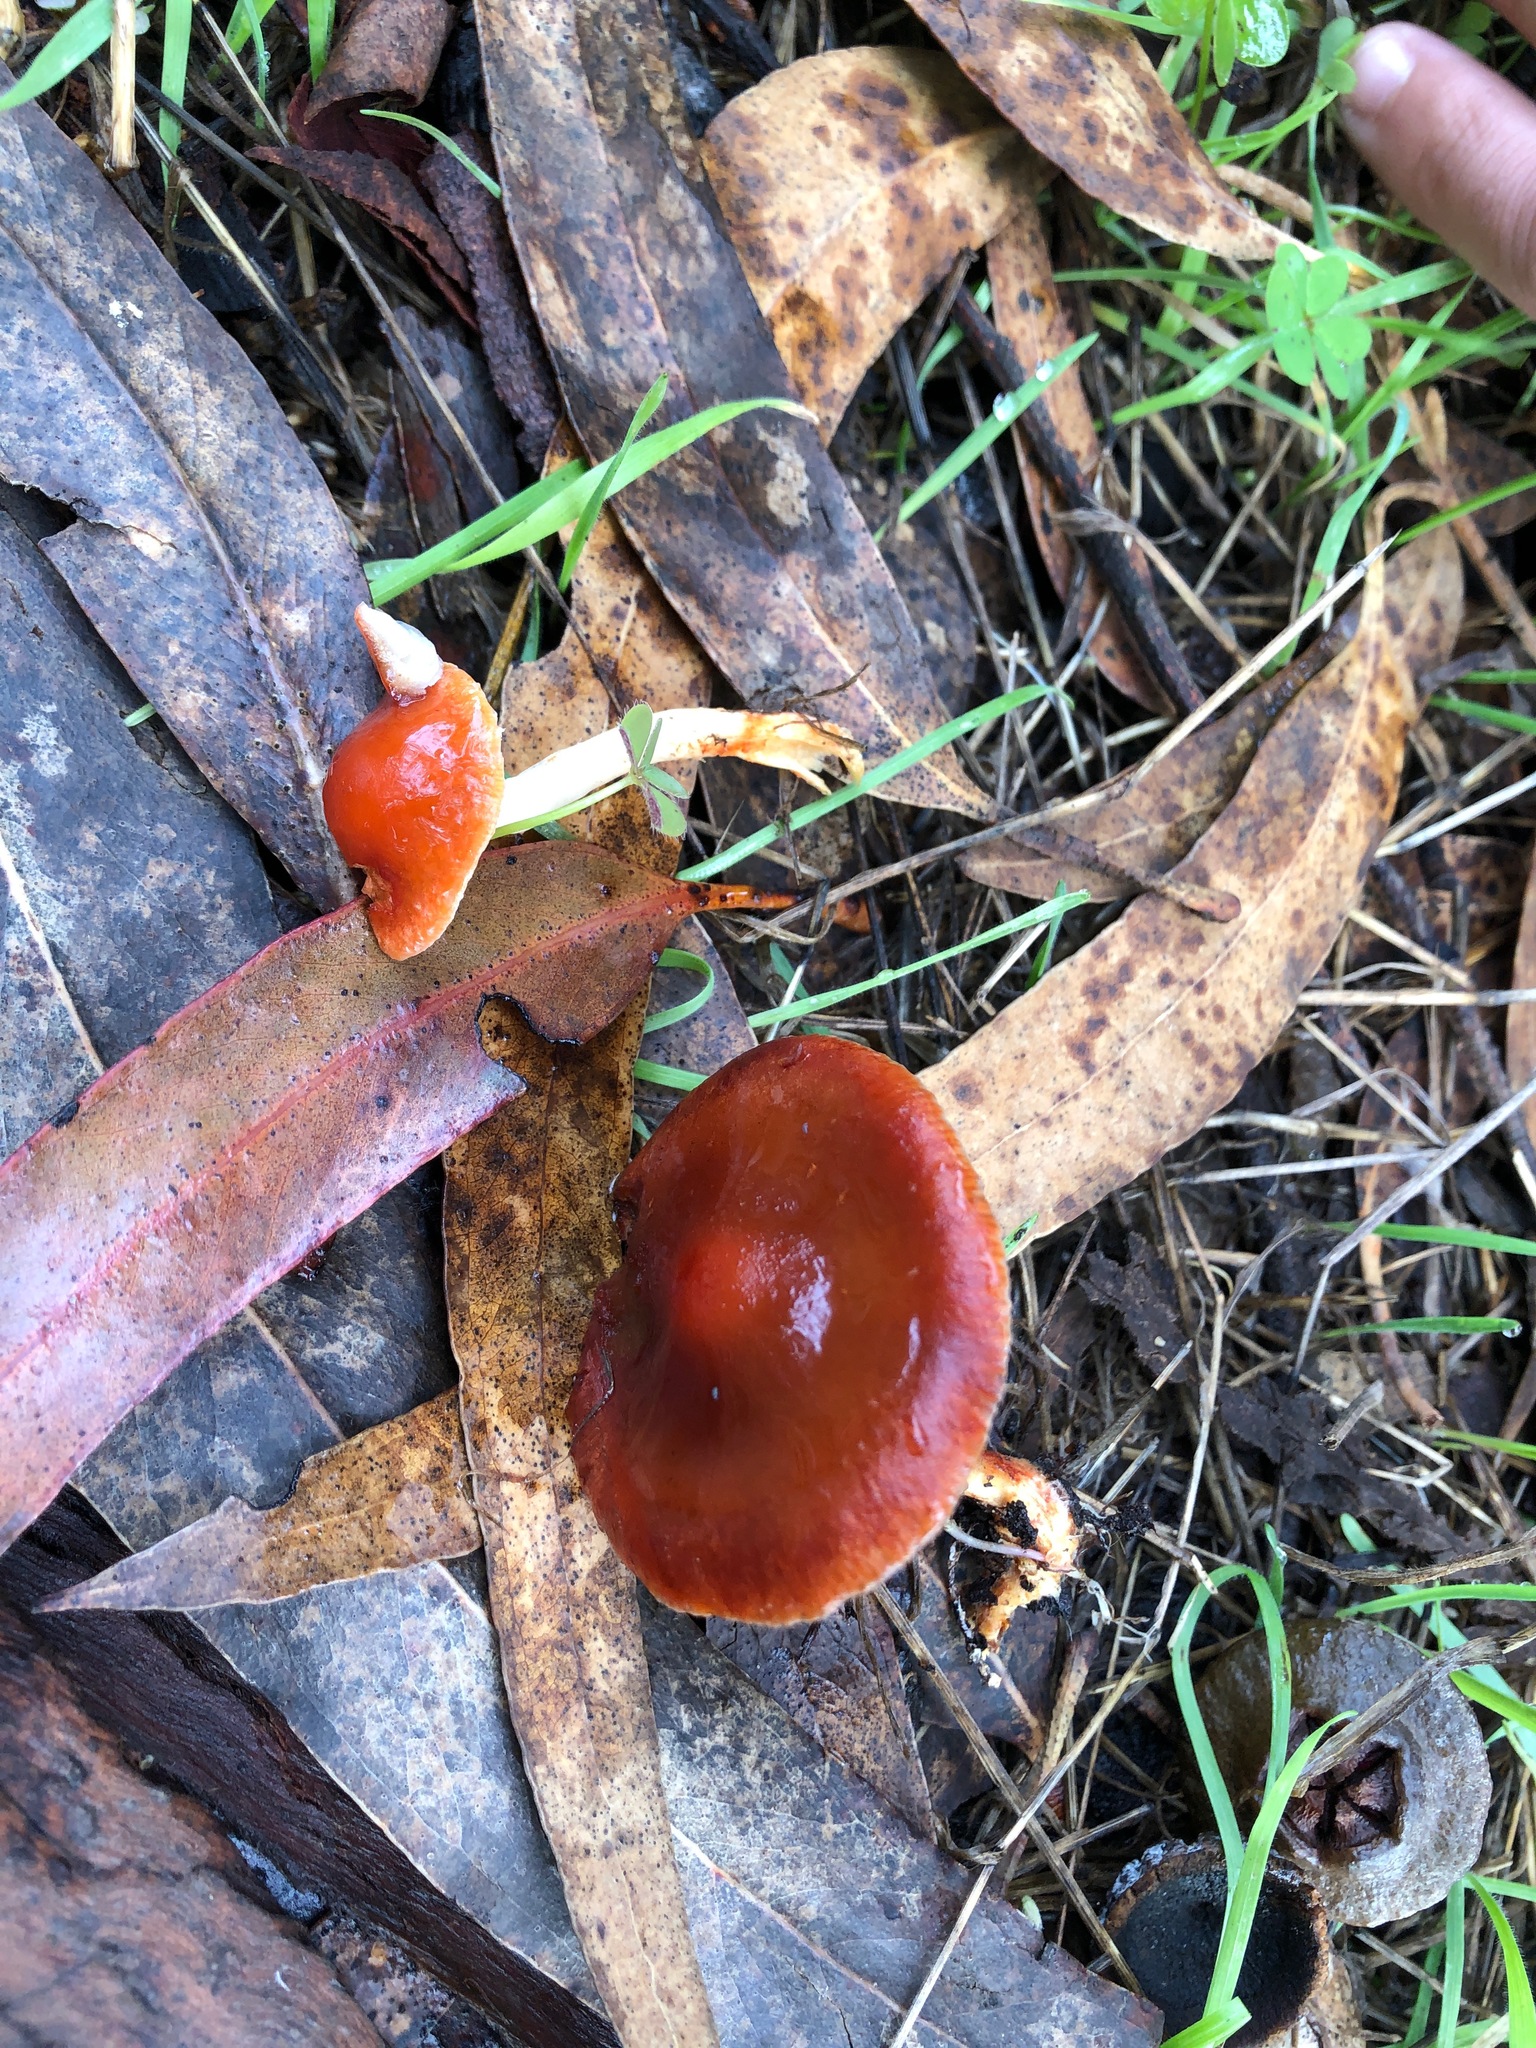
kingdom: Fungi
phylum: Basidiomycota
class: Agaricomycetes
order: Agaricales
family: Strophariaceae
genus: Leratiomyces
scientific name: Leratiomyces ceres
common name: Redlead roundhead
